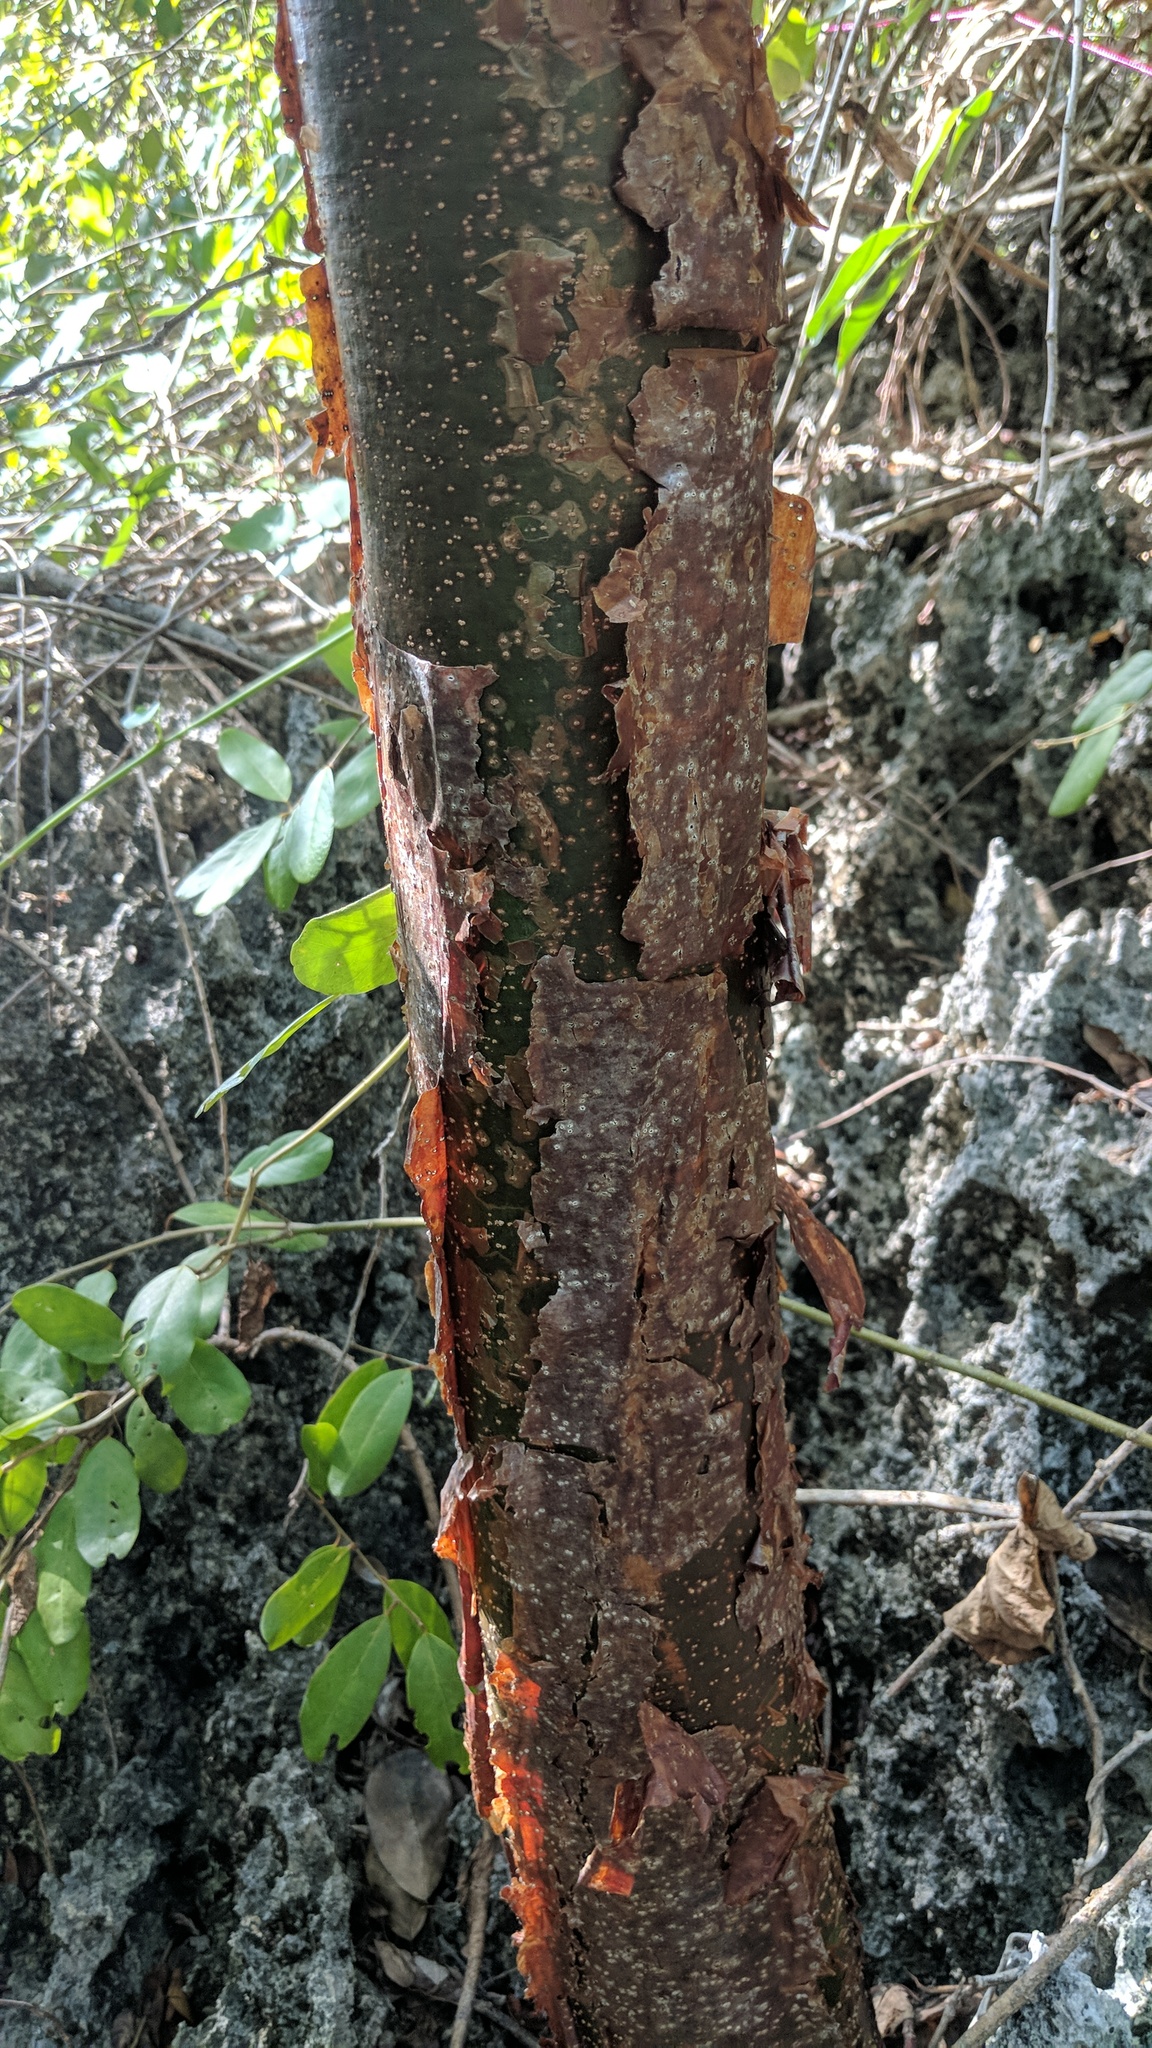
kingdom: Plantae
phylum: Tracheophyta
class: Magnoliopsida
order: Sapindales
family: Burseraceae
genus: Bursera
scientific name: Bursera simaruba
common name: Turpentine tree
